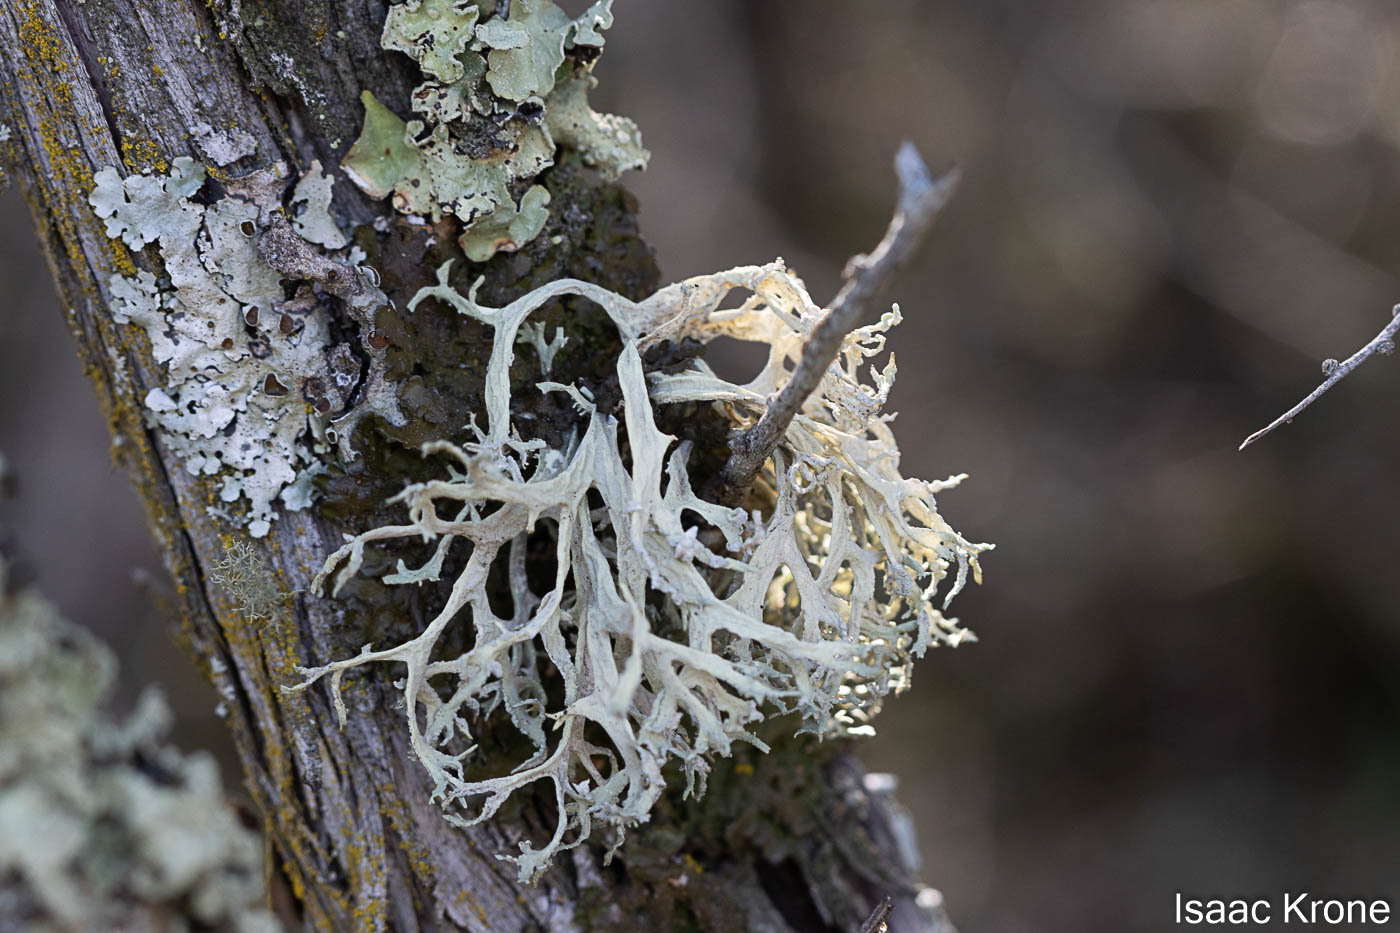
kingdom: Fungi
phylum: Ascomycota
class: Lecanoromycetes
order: Lecanorales
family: Parmeliaceae
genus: Evernia
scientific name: Evernia prunastri
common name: Oak moss
